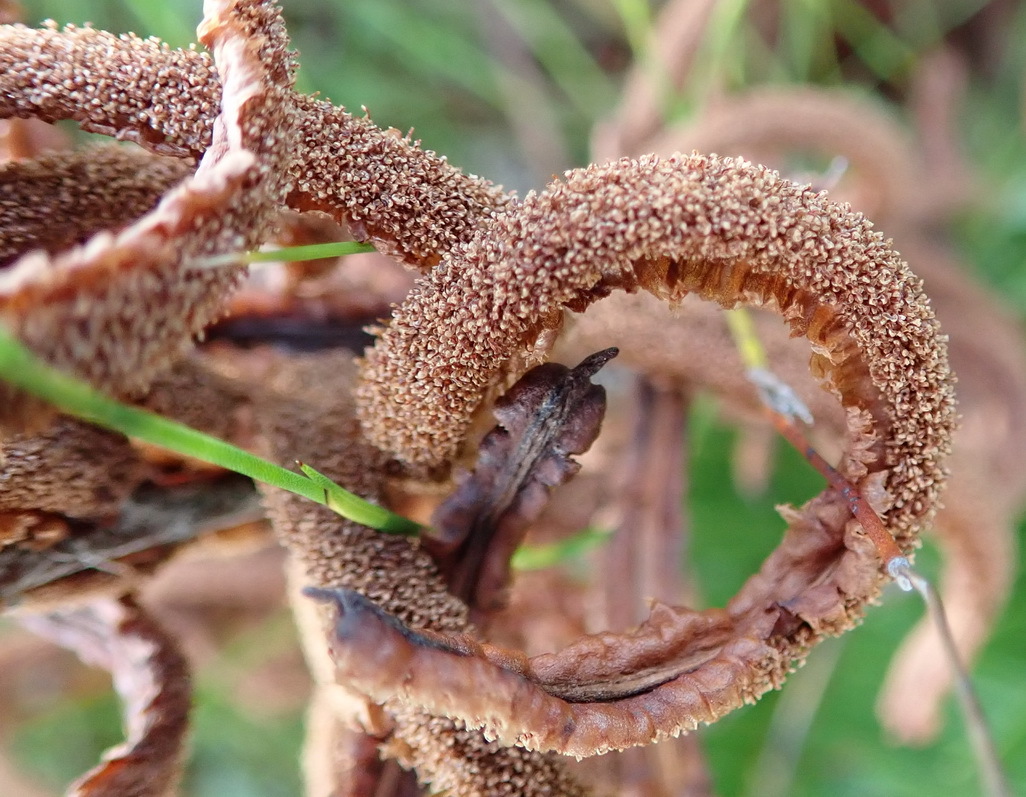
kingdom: Plantae
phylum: Tracheophyta
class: Polypodiopsida
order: Polypodiales
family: Blechnaceae
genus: Lomariocycas
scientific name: Lomariocycas tabularis
